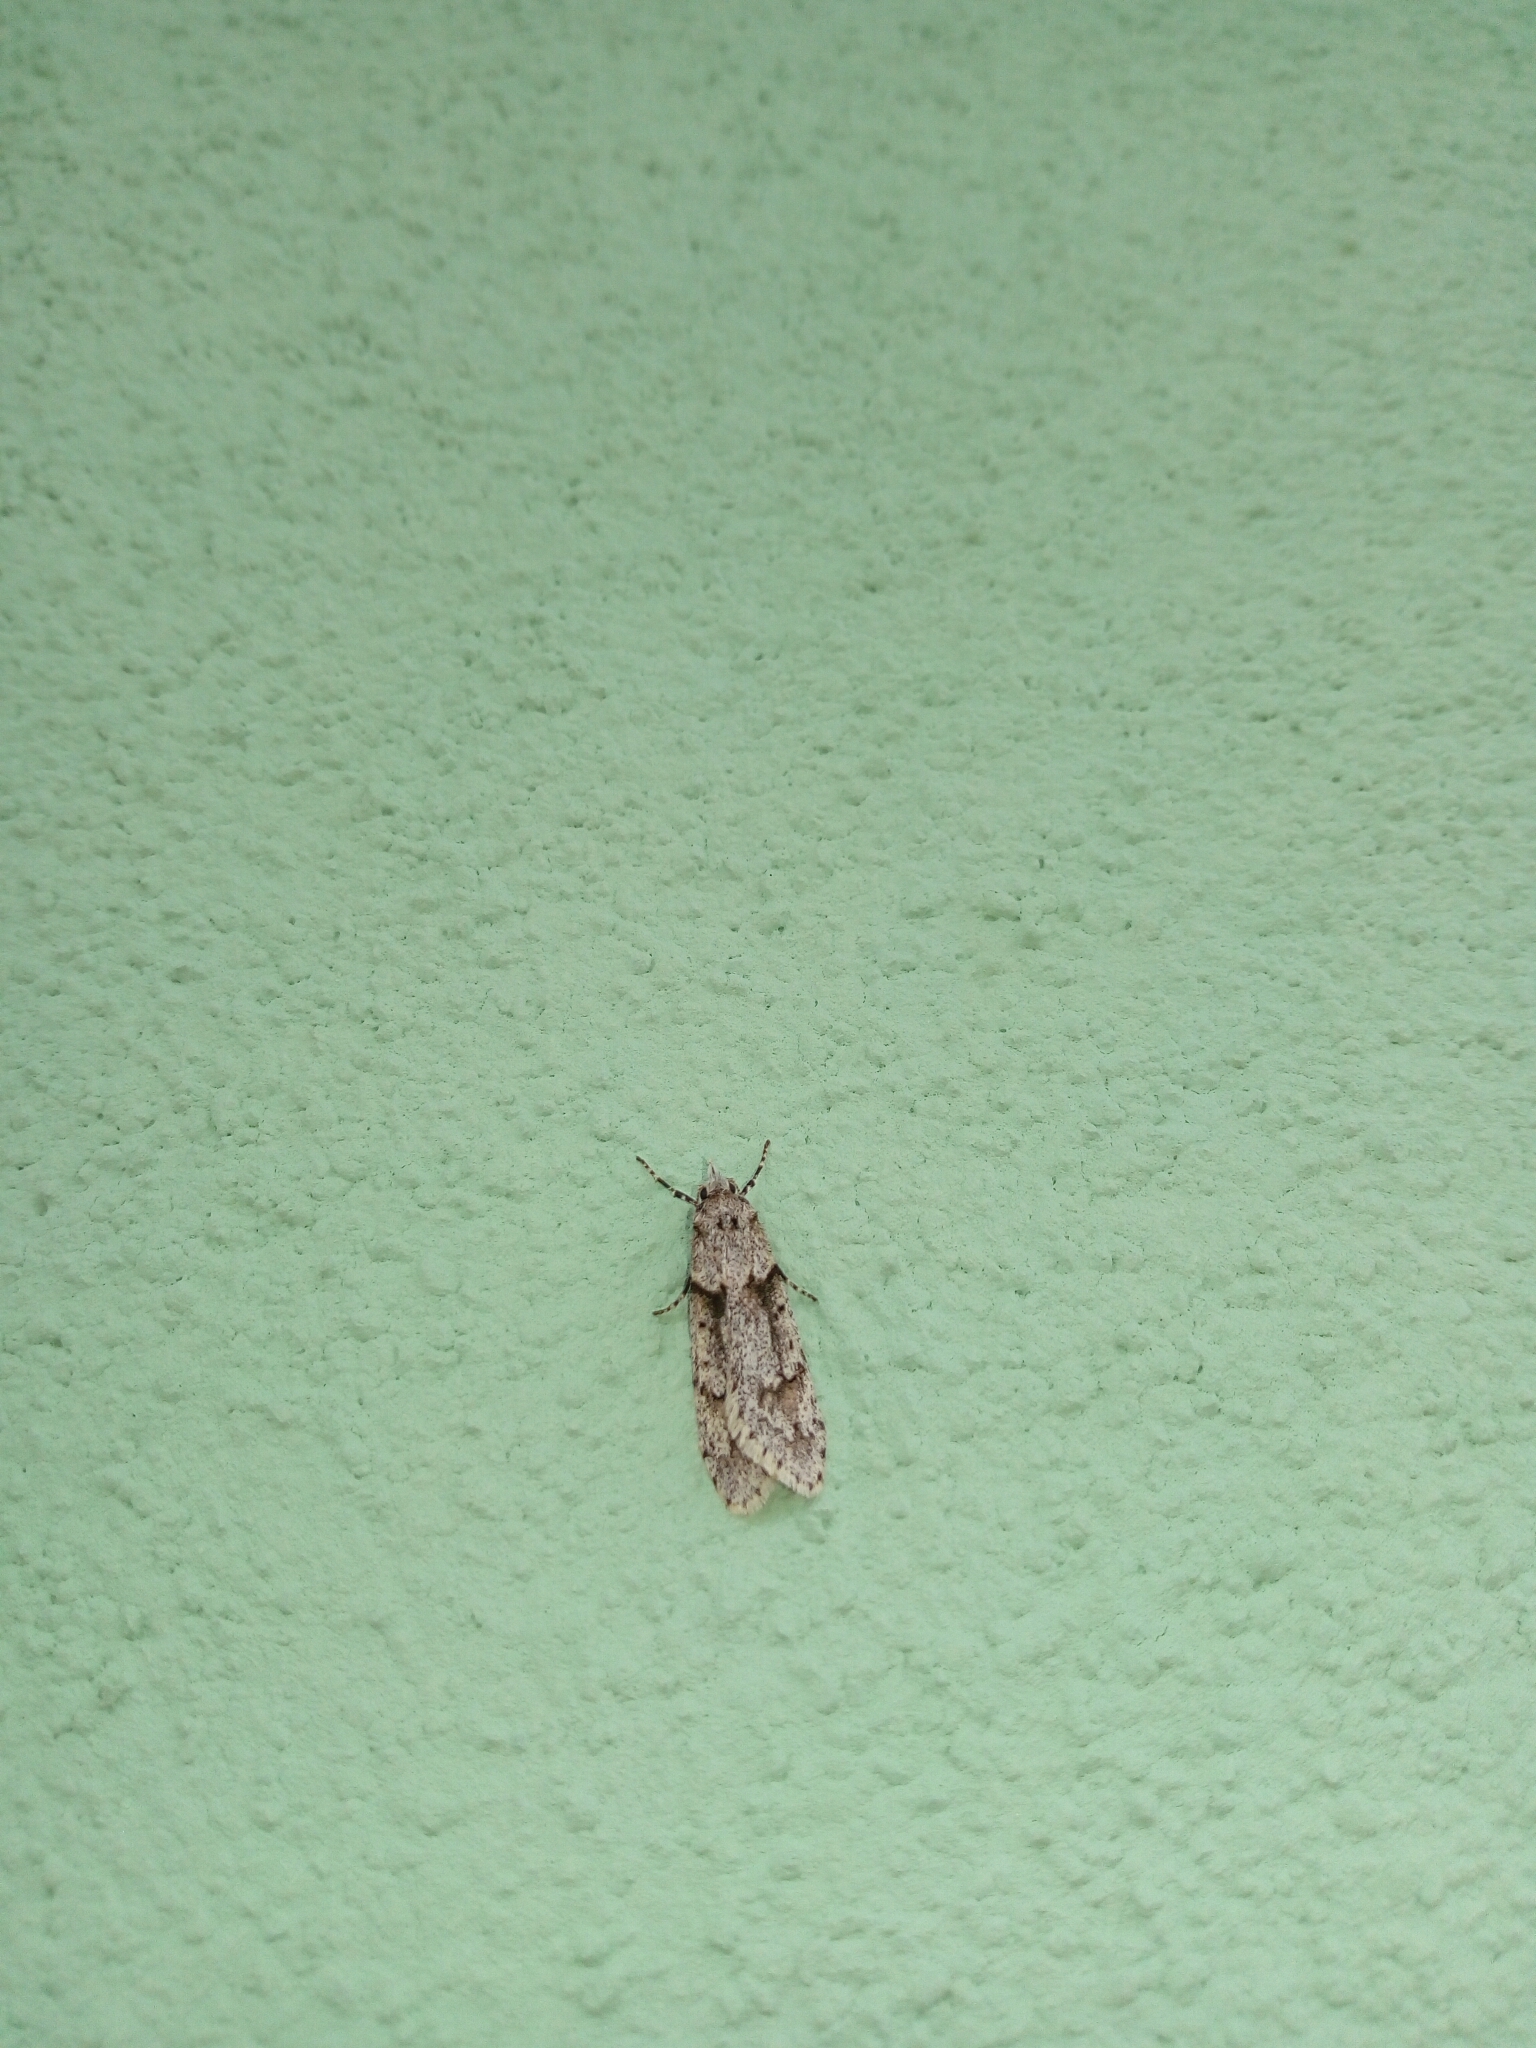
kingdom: Animalia
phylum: Arthropoda
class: Insecta
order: Lepidoptera
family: Lypusidae
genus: Diurnea
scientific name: Diurnea fagella
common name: March tubic
